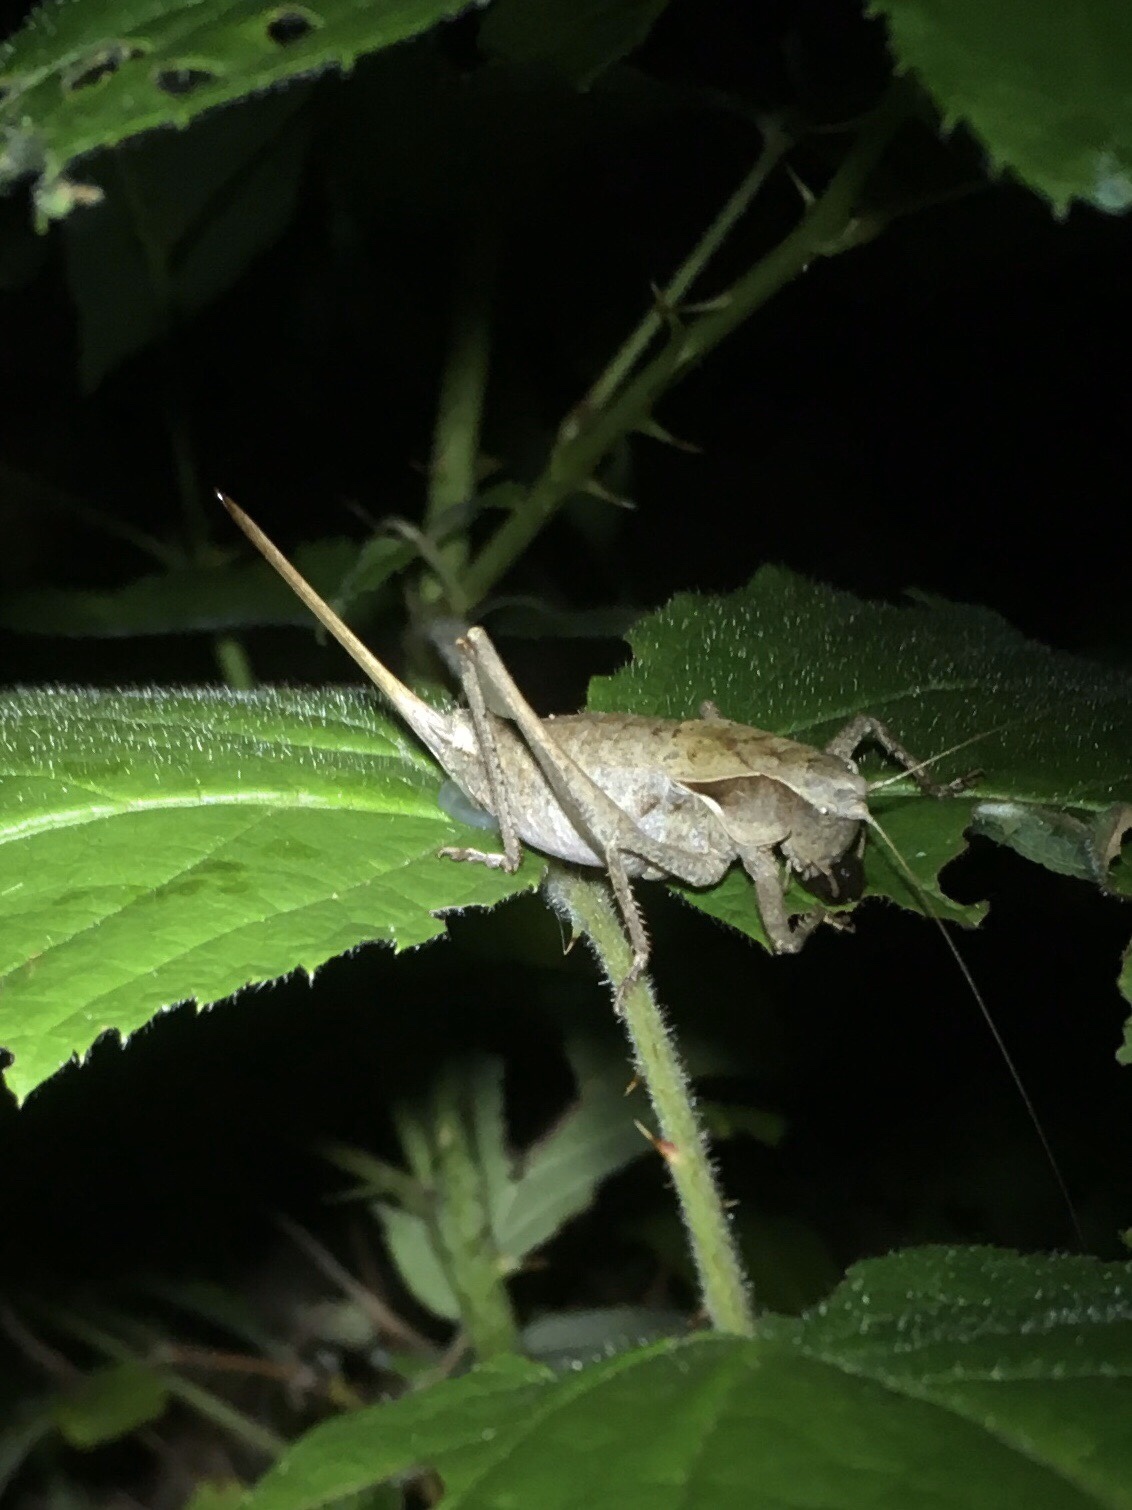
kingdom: Animalia
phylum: Arthropoda
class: Insecta
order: Orthoptera
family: Tettigoniidae
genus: Atlanticus
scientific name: Atlanticus davisi
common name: Davis's shield-bearer
